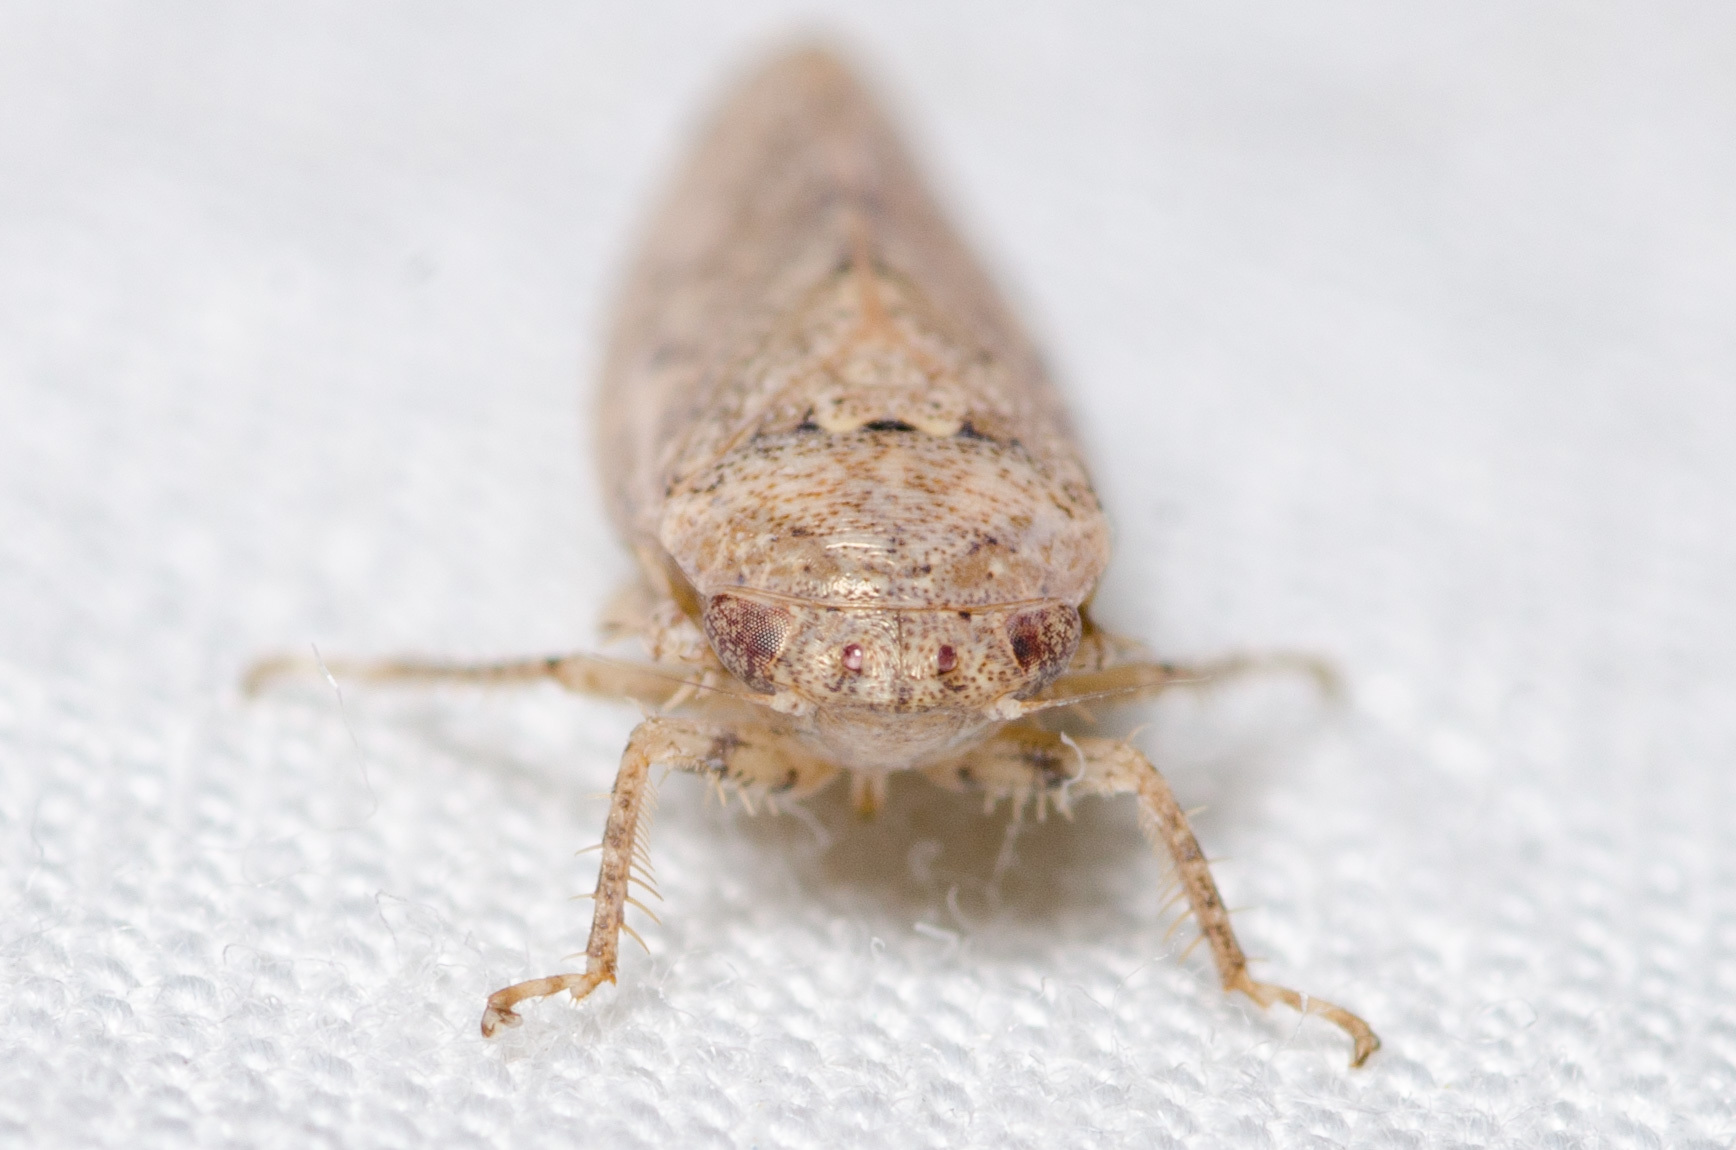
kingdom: Animalia
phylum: Arthropoda
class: Insecta
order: Hemiptera
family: Cicadellidae
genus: Curtara
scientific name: Curtara insularis
